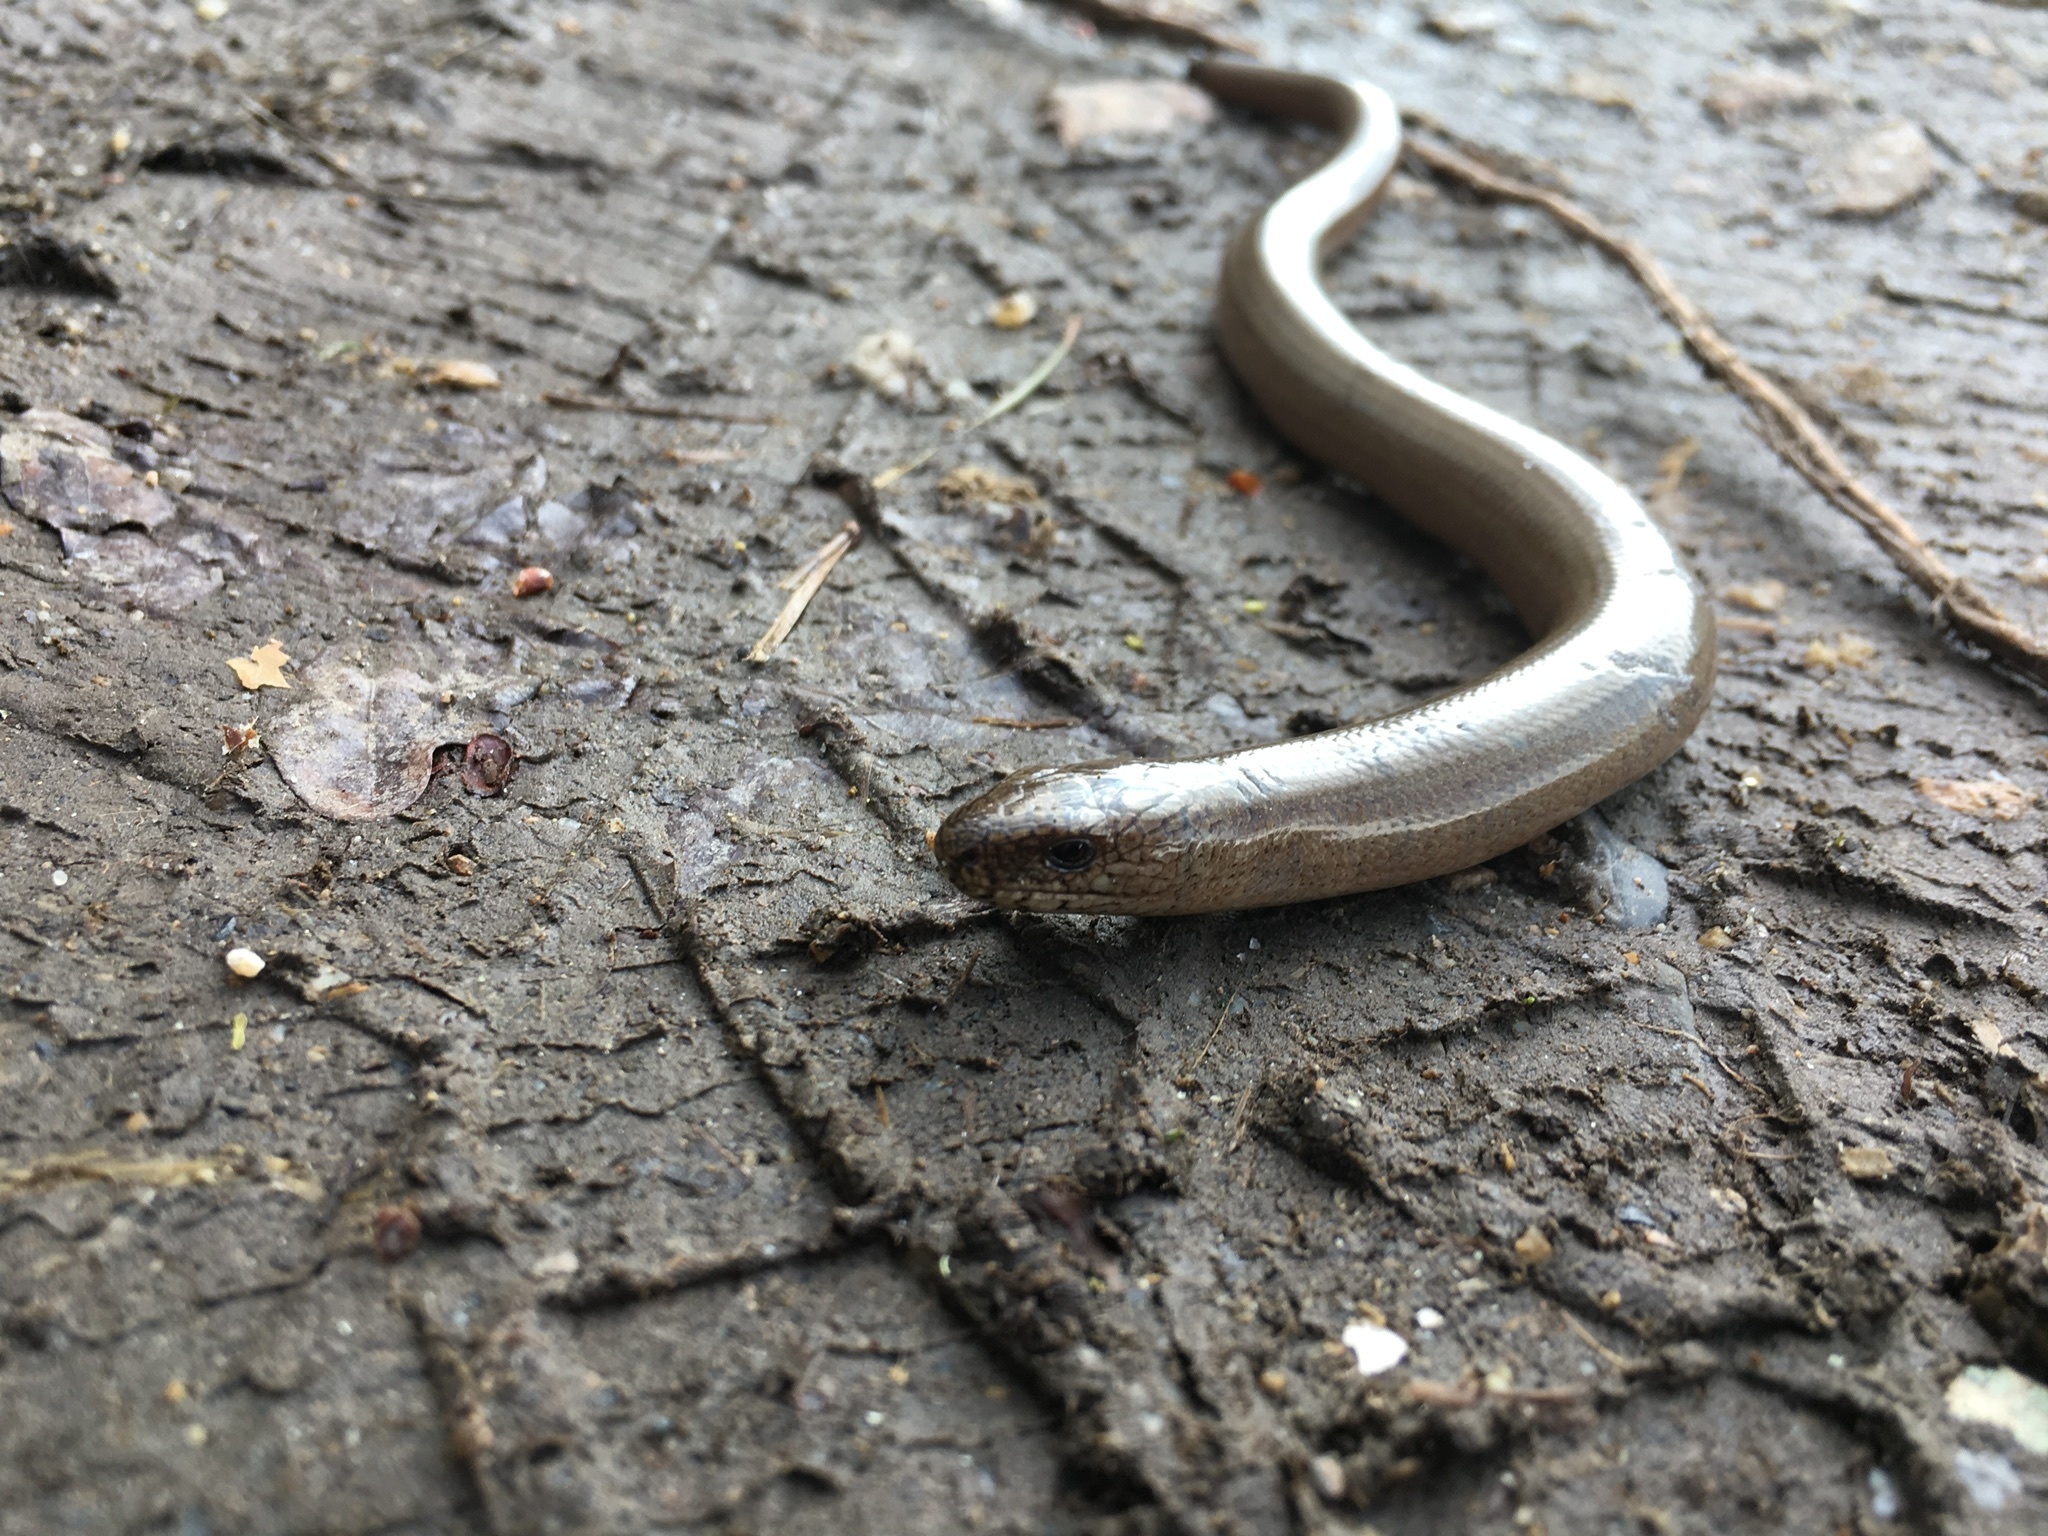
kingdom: Animalia
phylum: Chordata
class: Squamata
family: Anguidae
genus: Anguis
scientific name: Anguis fragilis
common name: Slow worm
